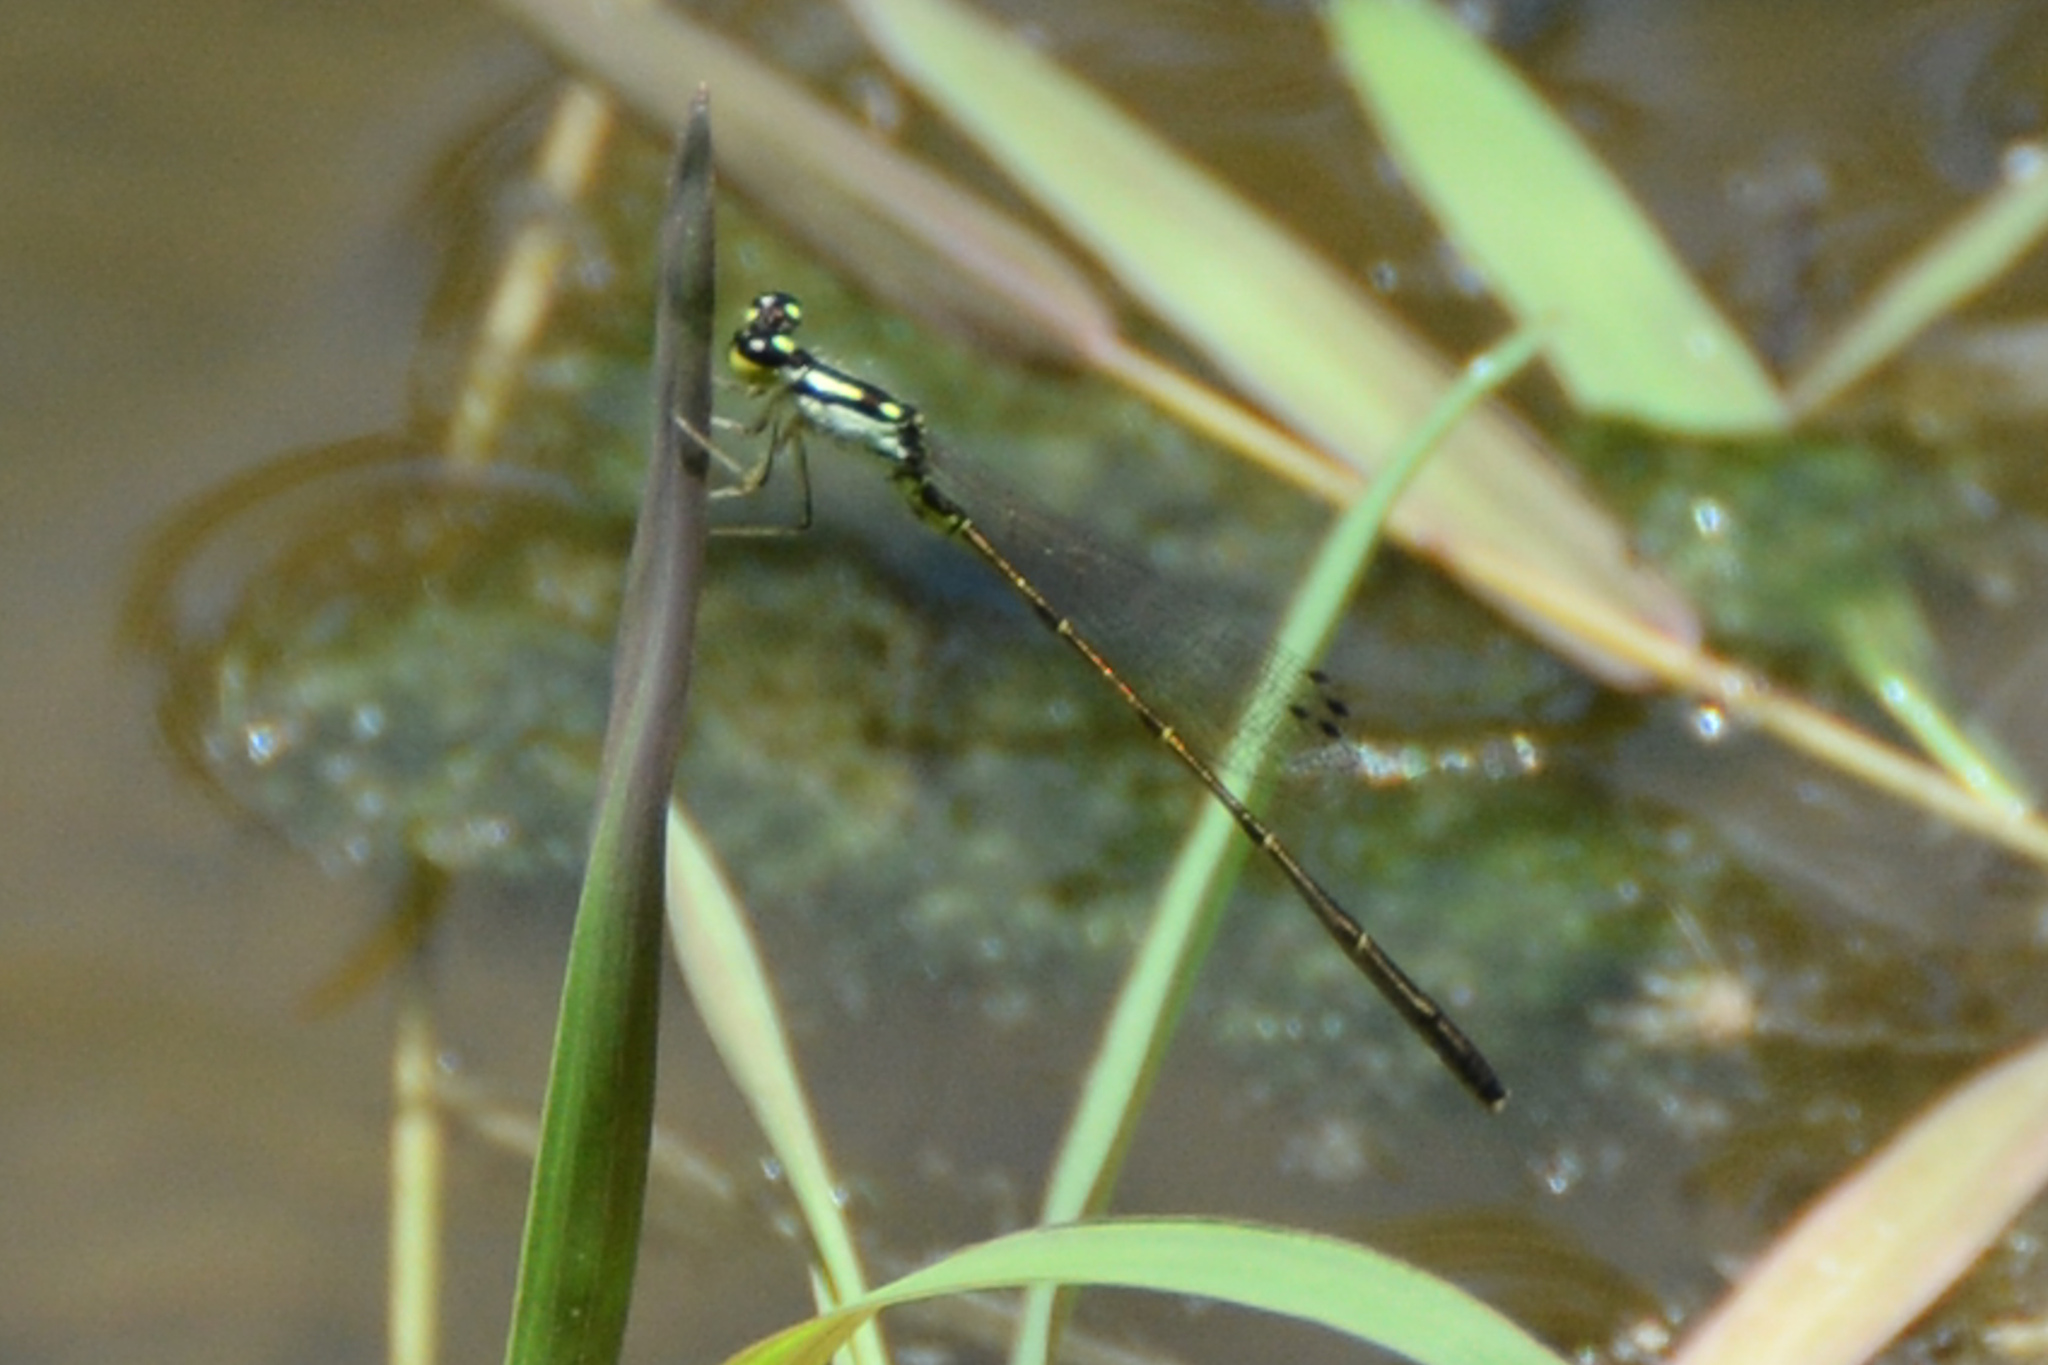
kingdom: Animalia
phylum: Arthropoda
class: Insecta
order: Odonata
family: Coenagrionidae
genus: Ischnura
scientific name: Ischnura posita
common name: Fragile forktail
